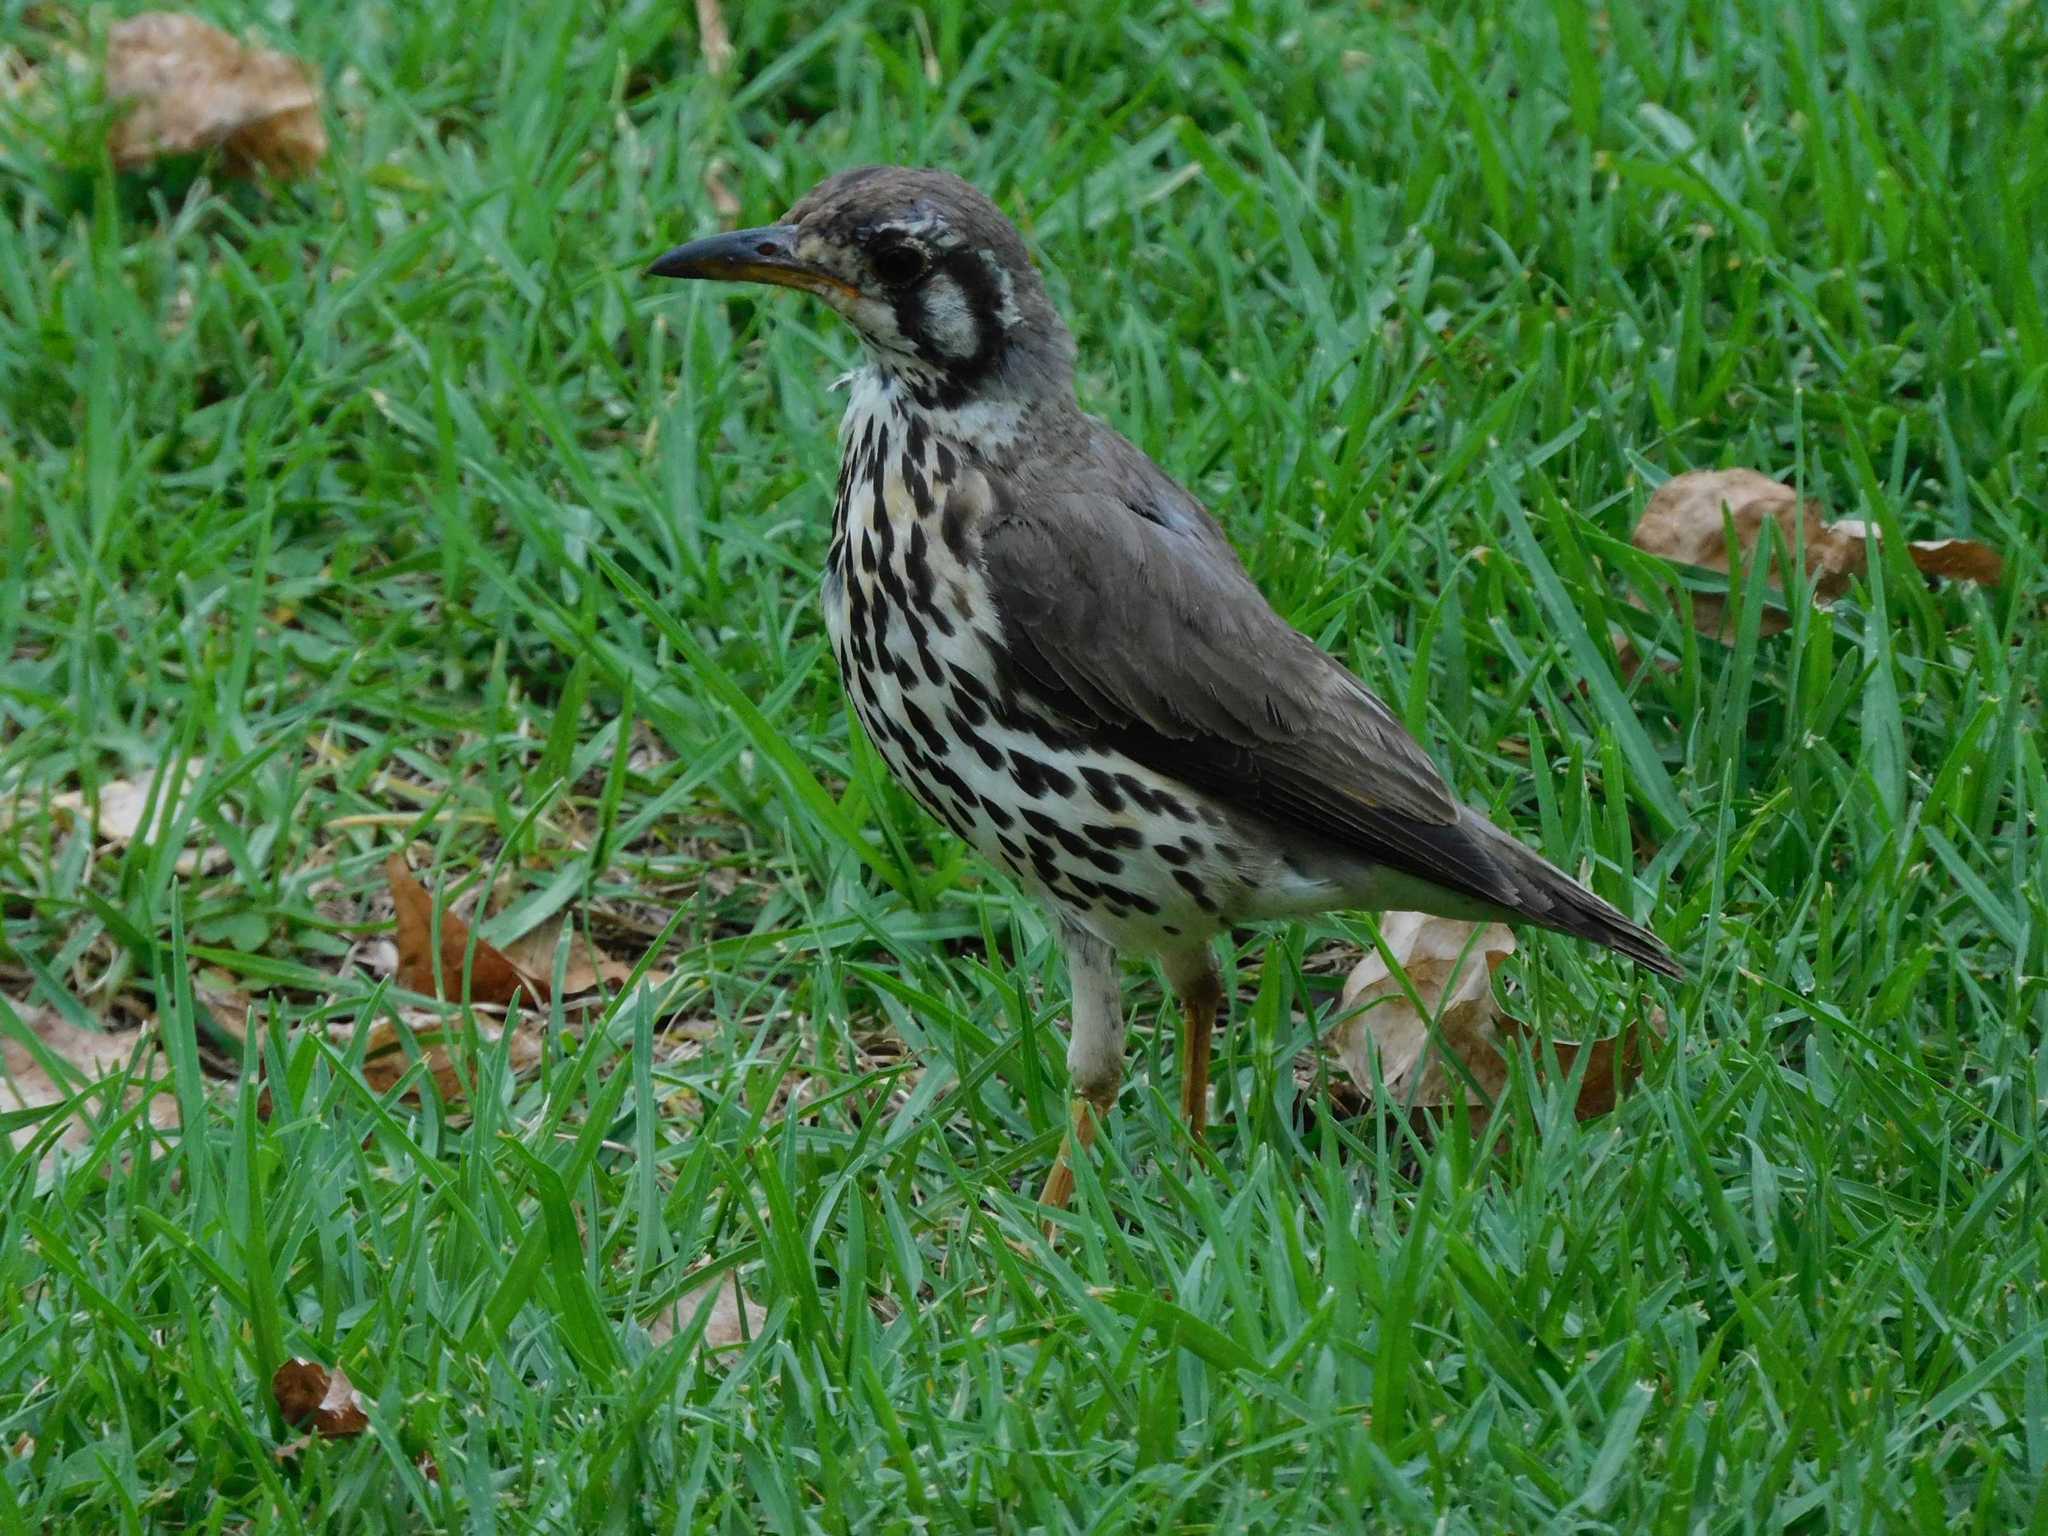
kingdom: Animalia
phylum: Chordata
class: Aves
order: Passeriformes
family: Turdidae
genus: Psophocichla
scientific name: Psophocichla litsitsirupa
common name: Groundscraper thrush
